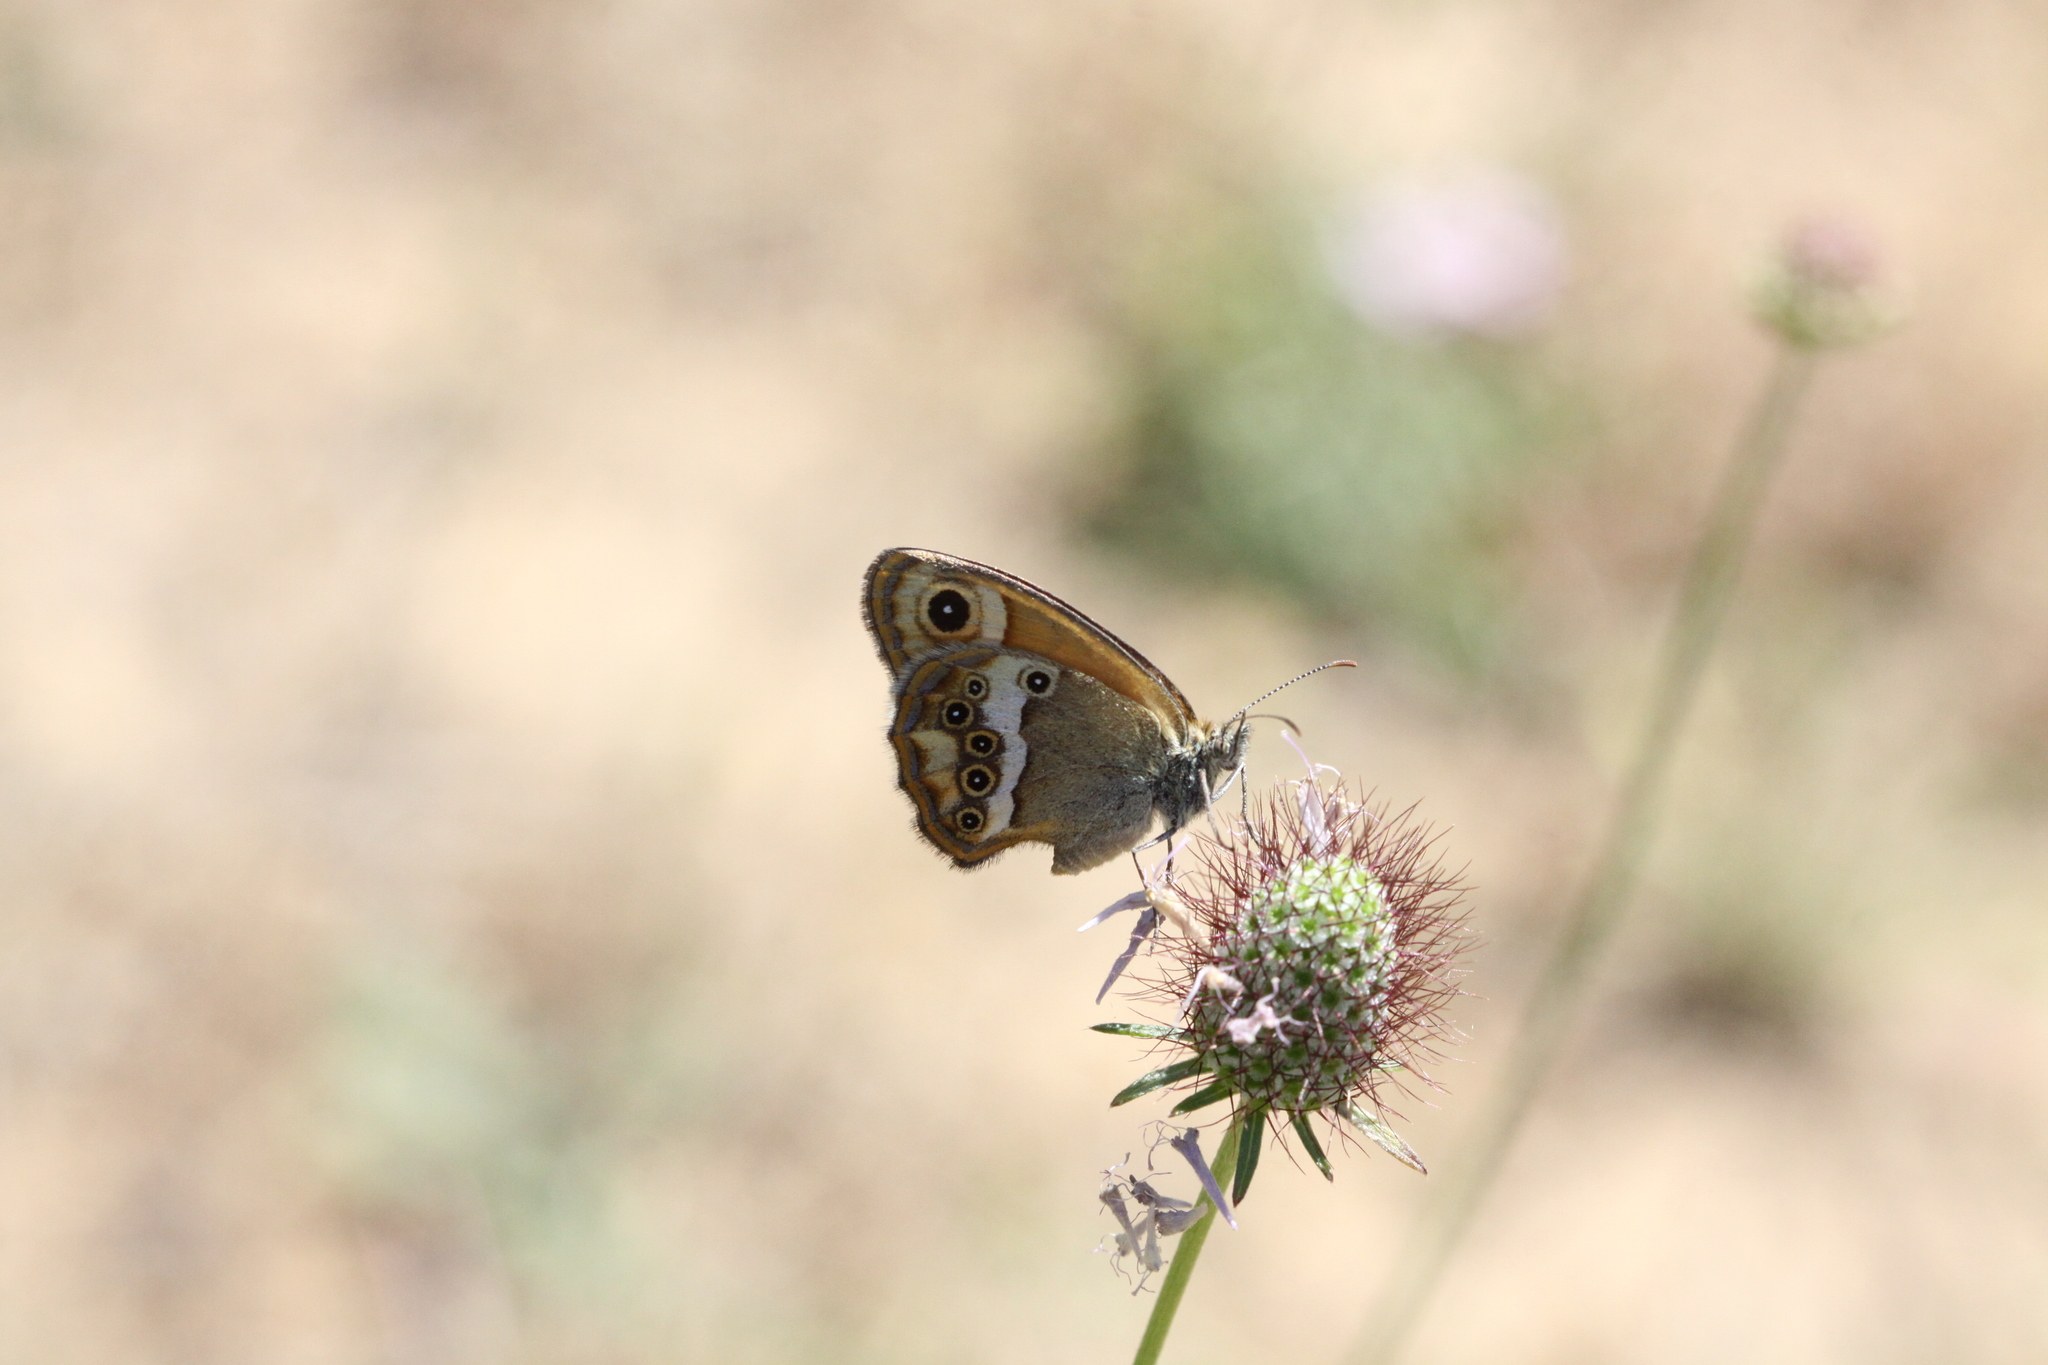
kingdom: Animalia
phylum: Arthropoda
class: Insecta
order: Lepidoptera
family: Nymphalidae
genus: Coenonympha
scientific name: Coenonympha dorus
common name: Dusky heath
